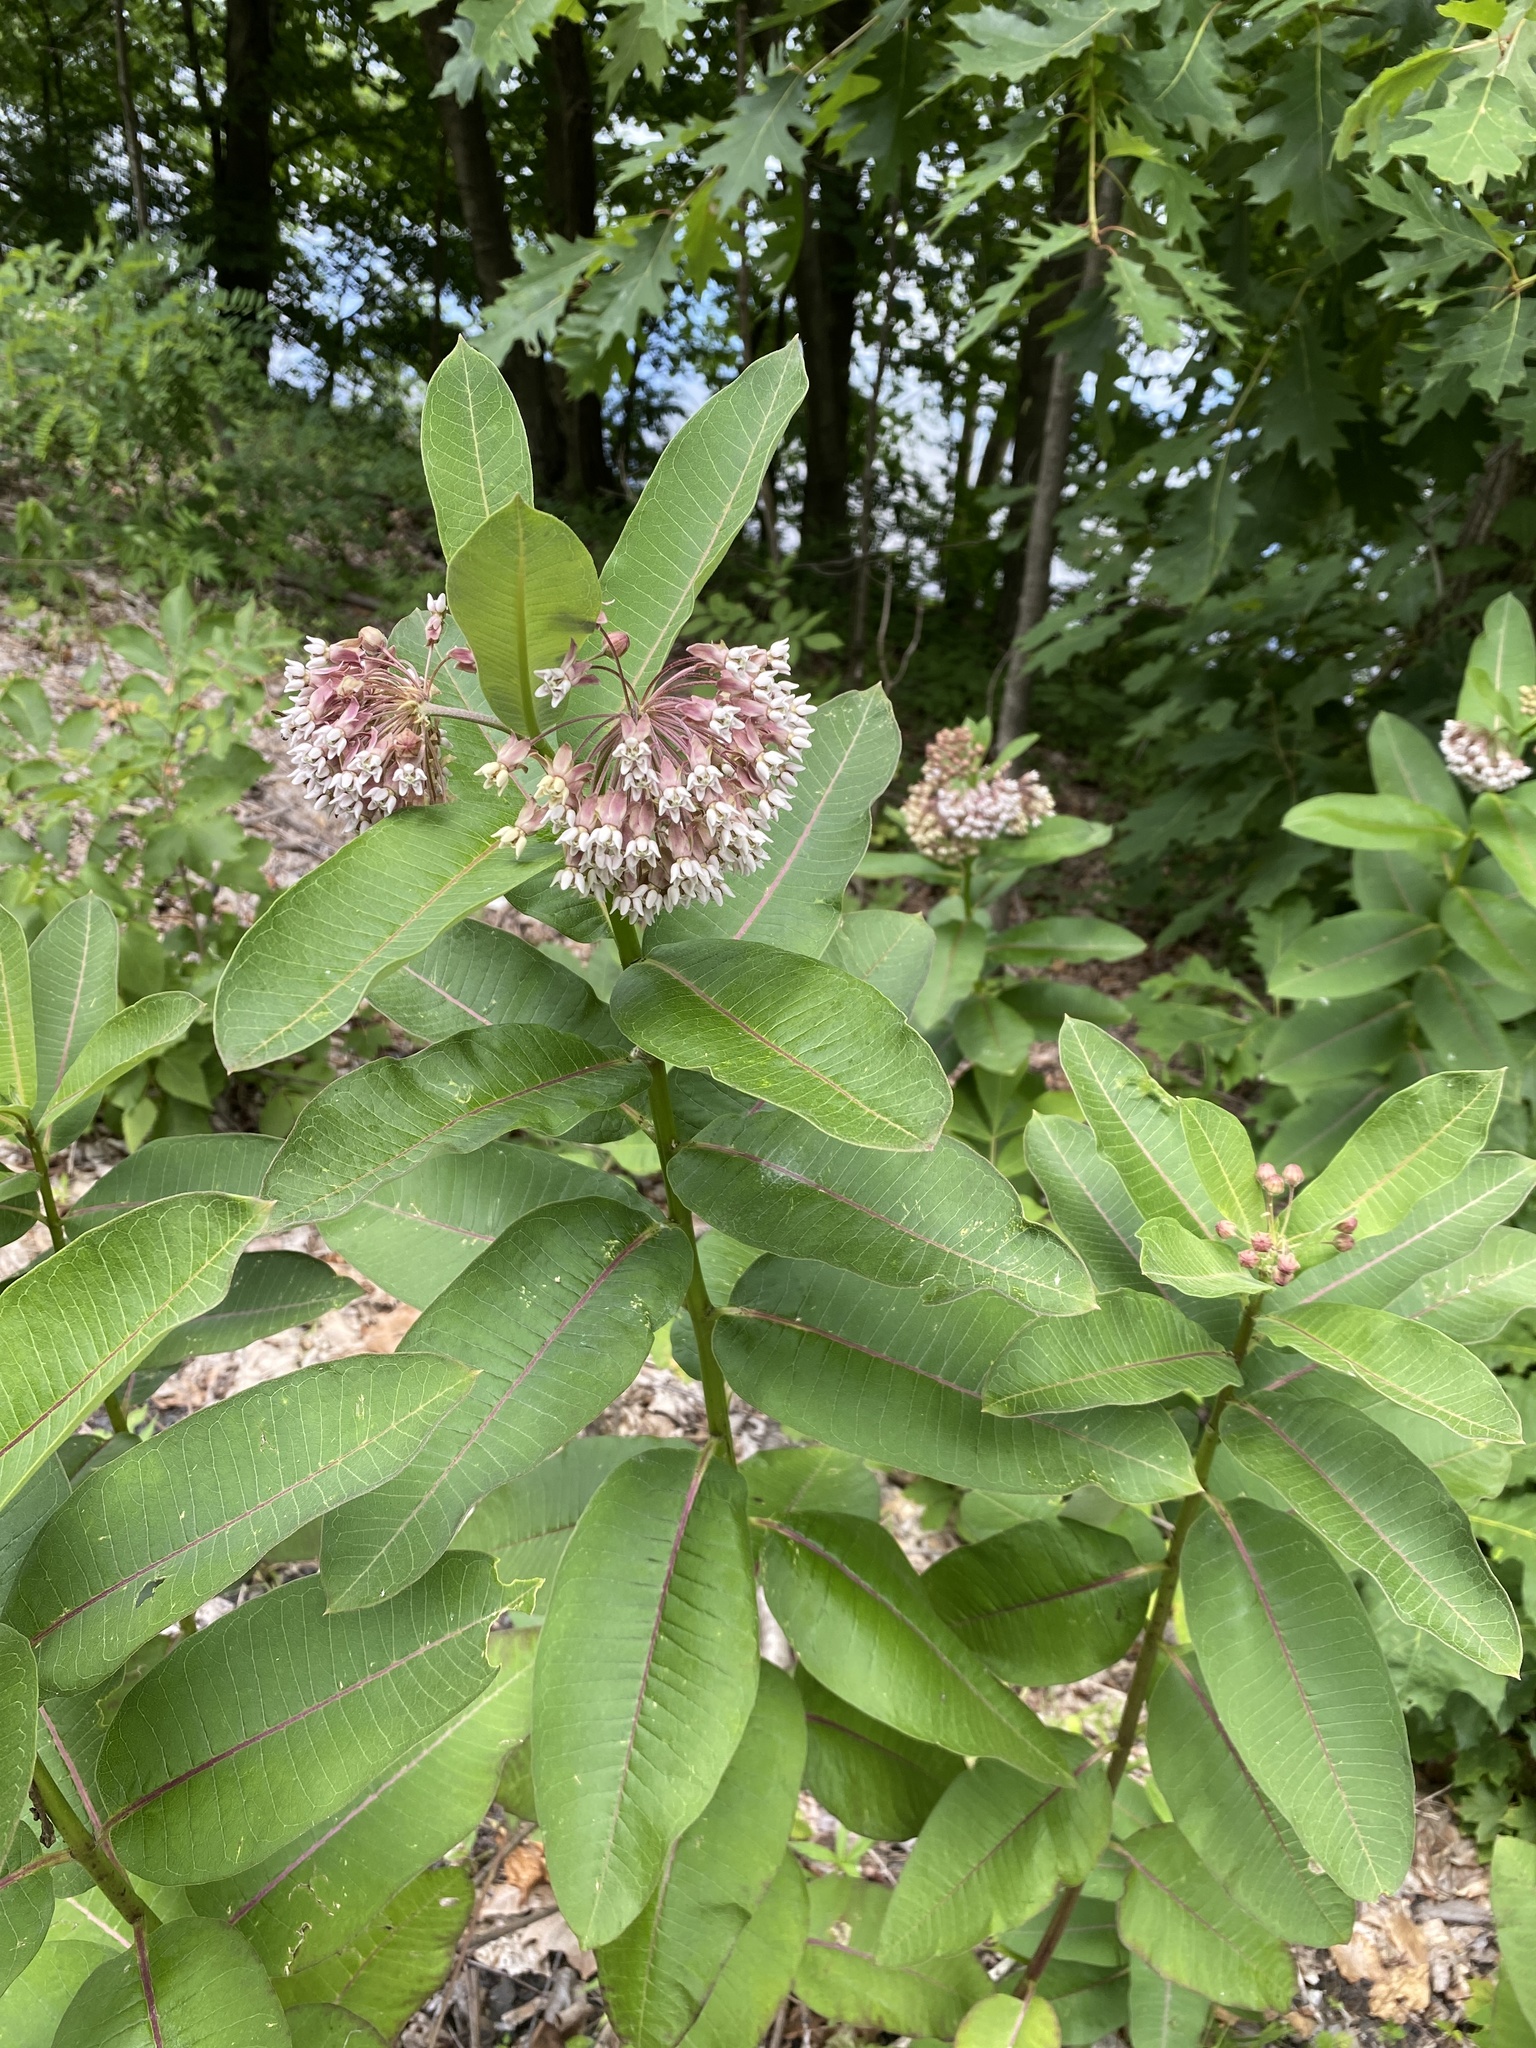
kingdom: Plantae
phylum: Tracheophyta
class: Magnoliopsida
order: Gentianales
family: Apocynaceae
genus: Asclepias
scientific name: Asclepias syriaca
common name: Common milkweed
